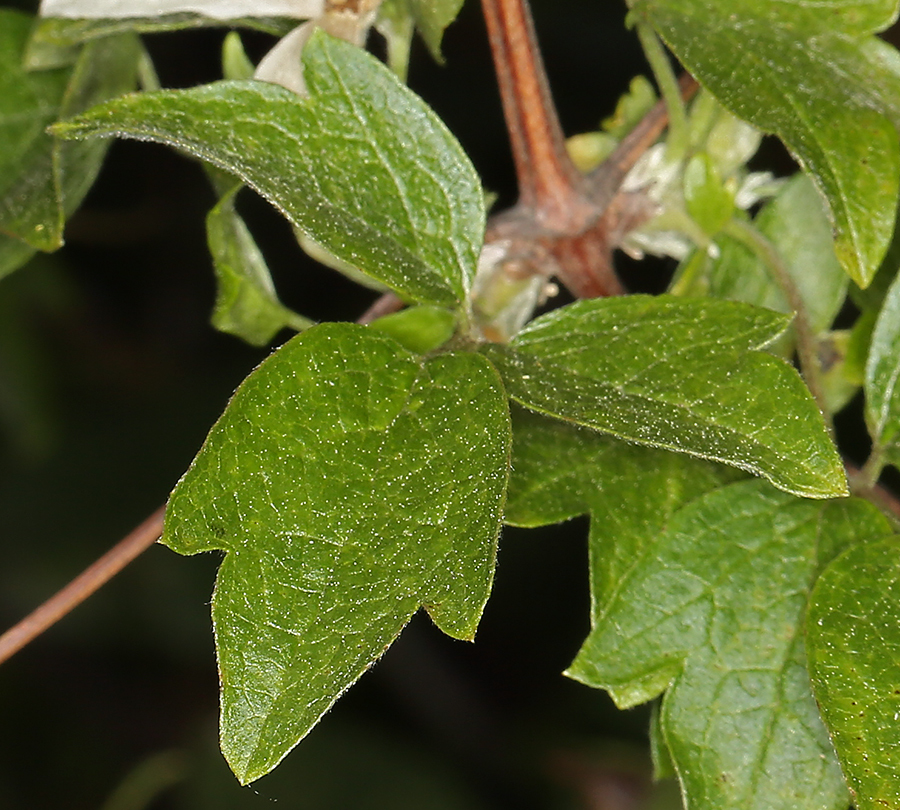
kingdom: Plantae
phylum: Tracheophyta
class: Magnoliopsida
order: Ranunculales
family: Ranunculaceae
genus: Clematis
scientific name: Clematis lasiantha
